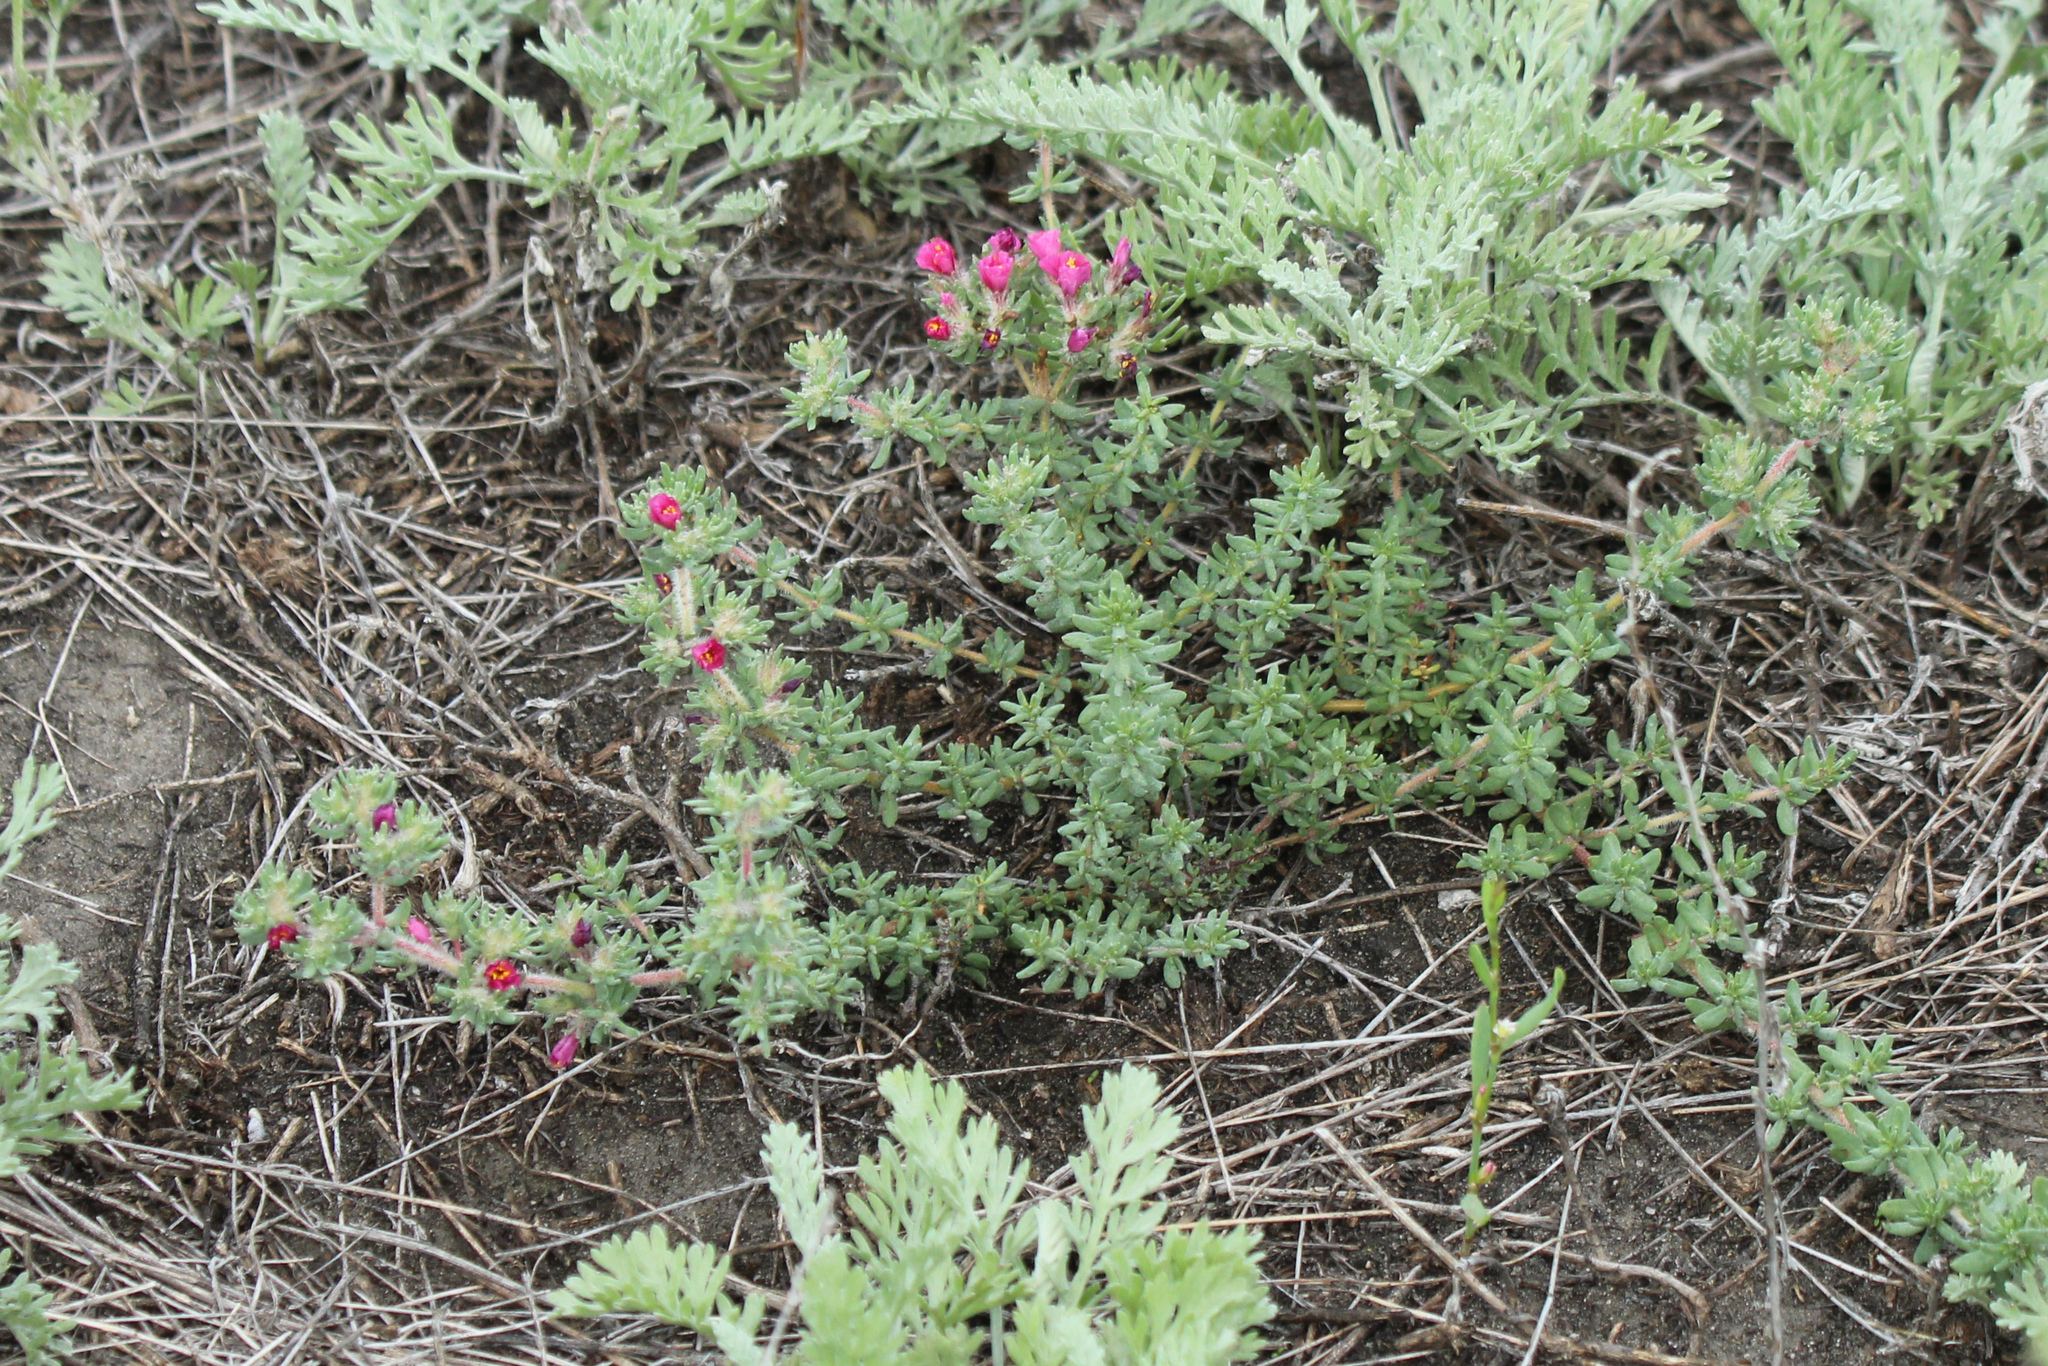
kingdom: Plantae
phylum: Tracheophyta
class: Magnoliopsida
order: Caryophyllales
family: Frankeniaceae
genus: Frankenia
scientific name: Frankenia hirsuta
